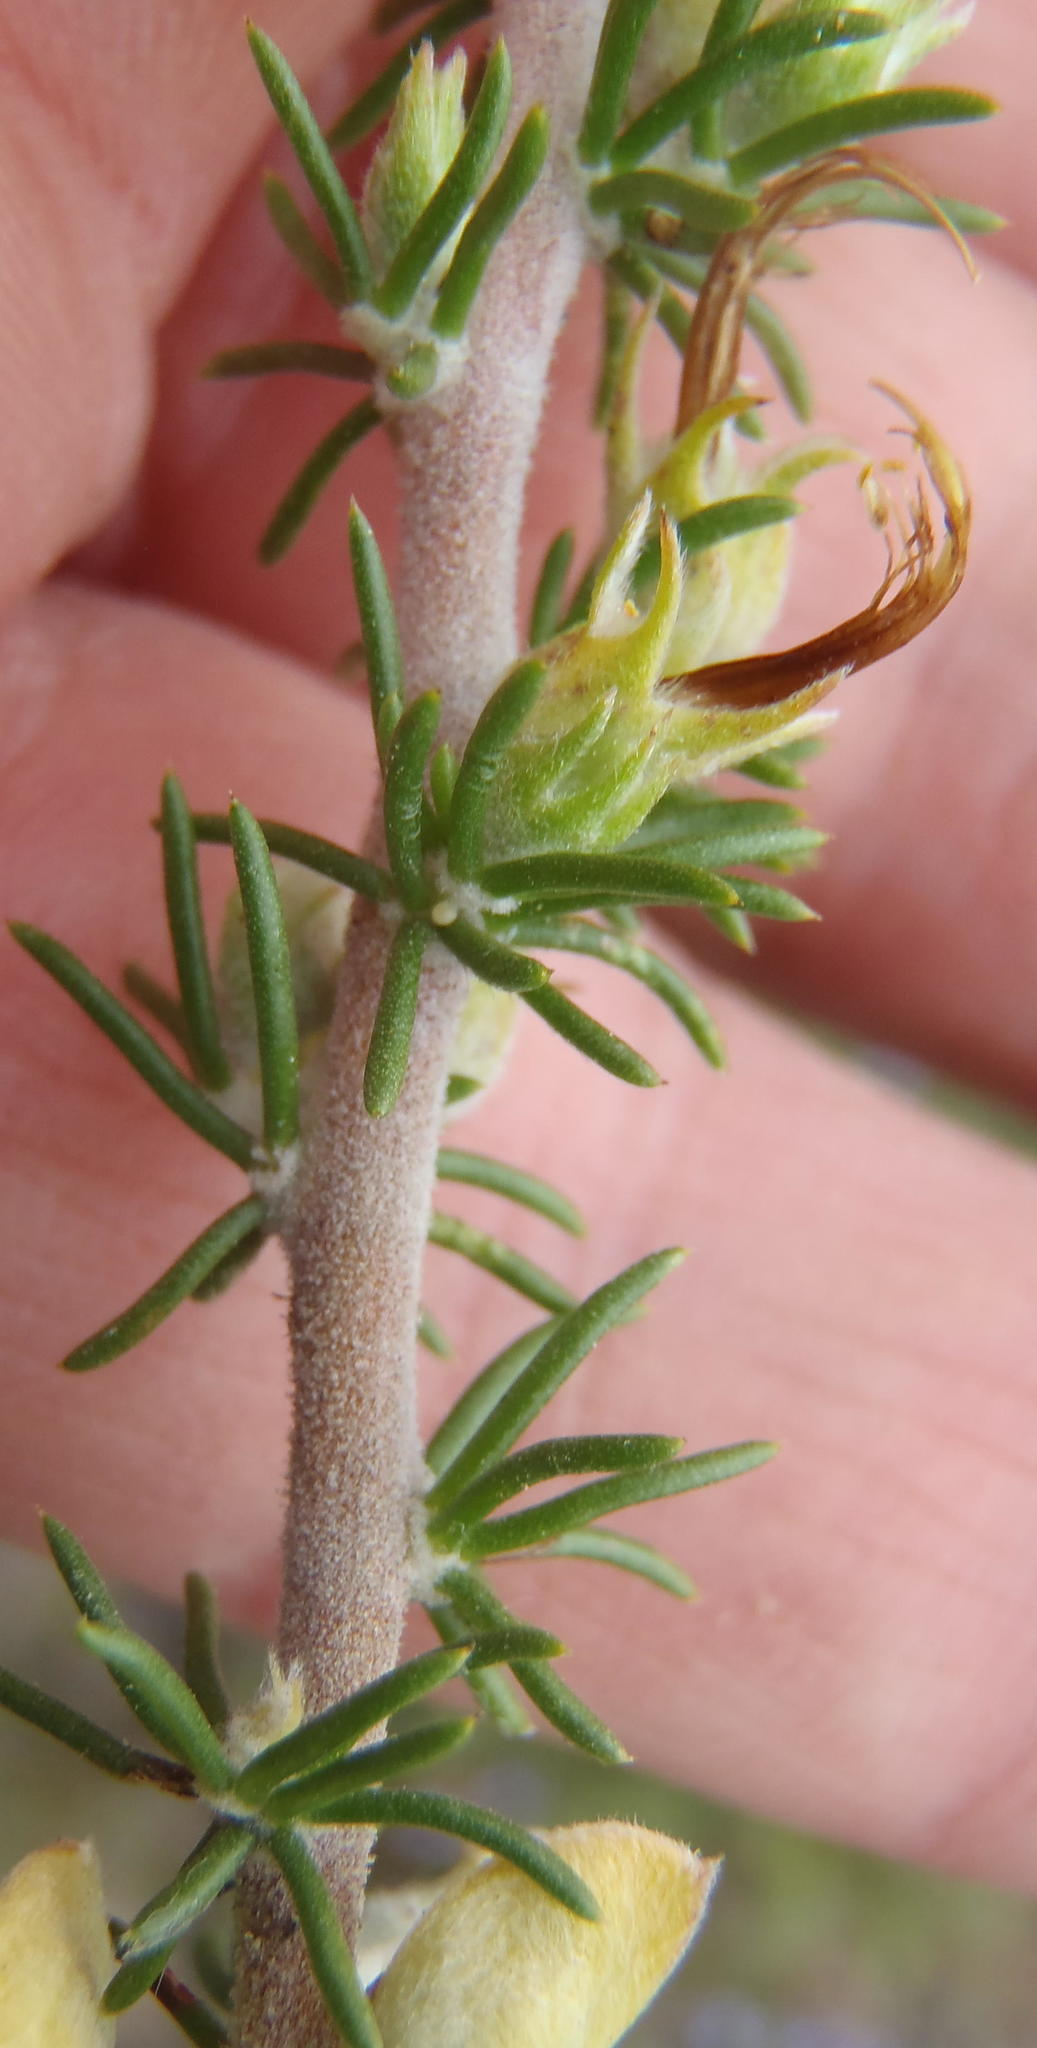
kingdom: Plantae
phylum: Tracheophyta
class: Magnoliopsida
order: Fabales
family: Fabaceae
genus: Aspalathus
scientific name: Aspalathus laricifolia
